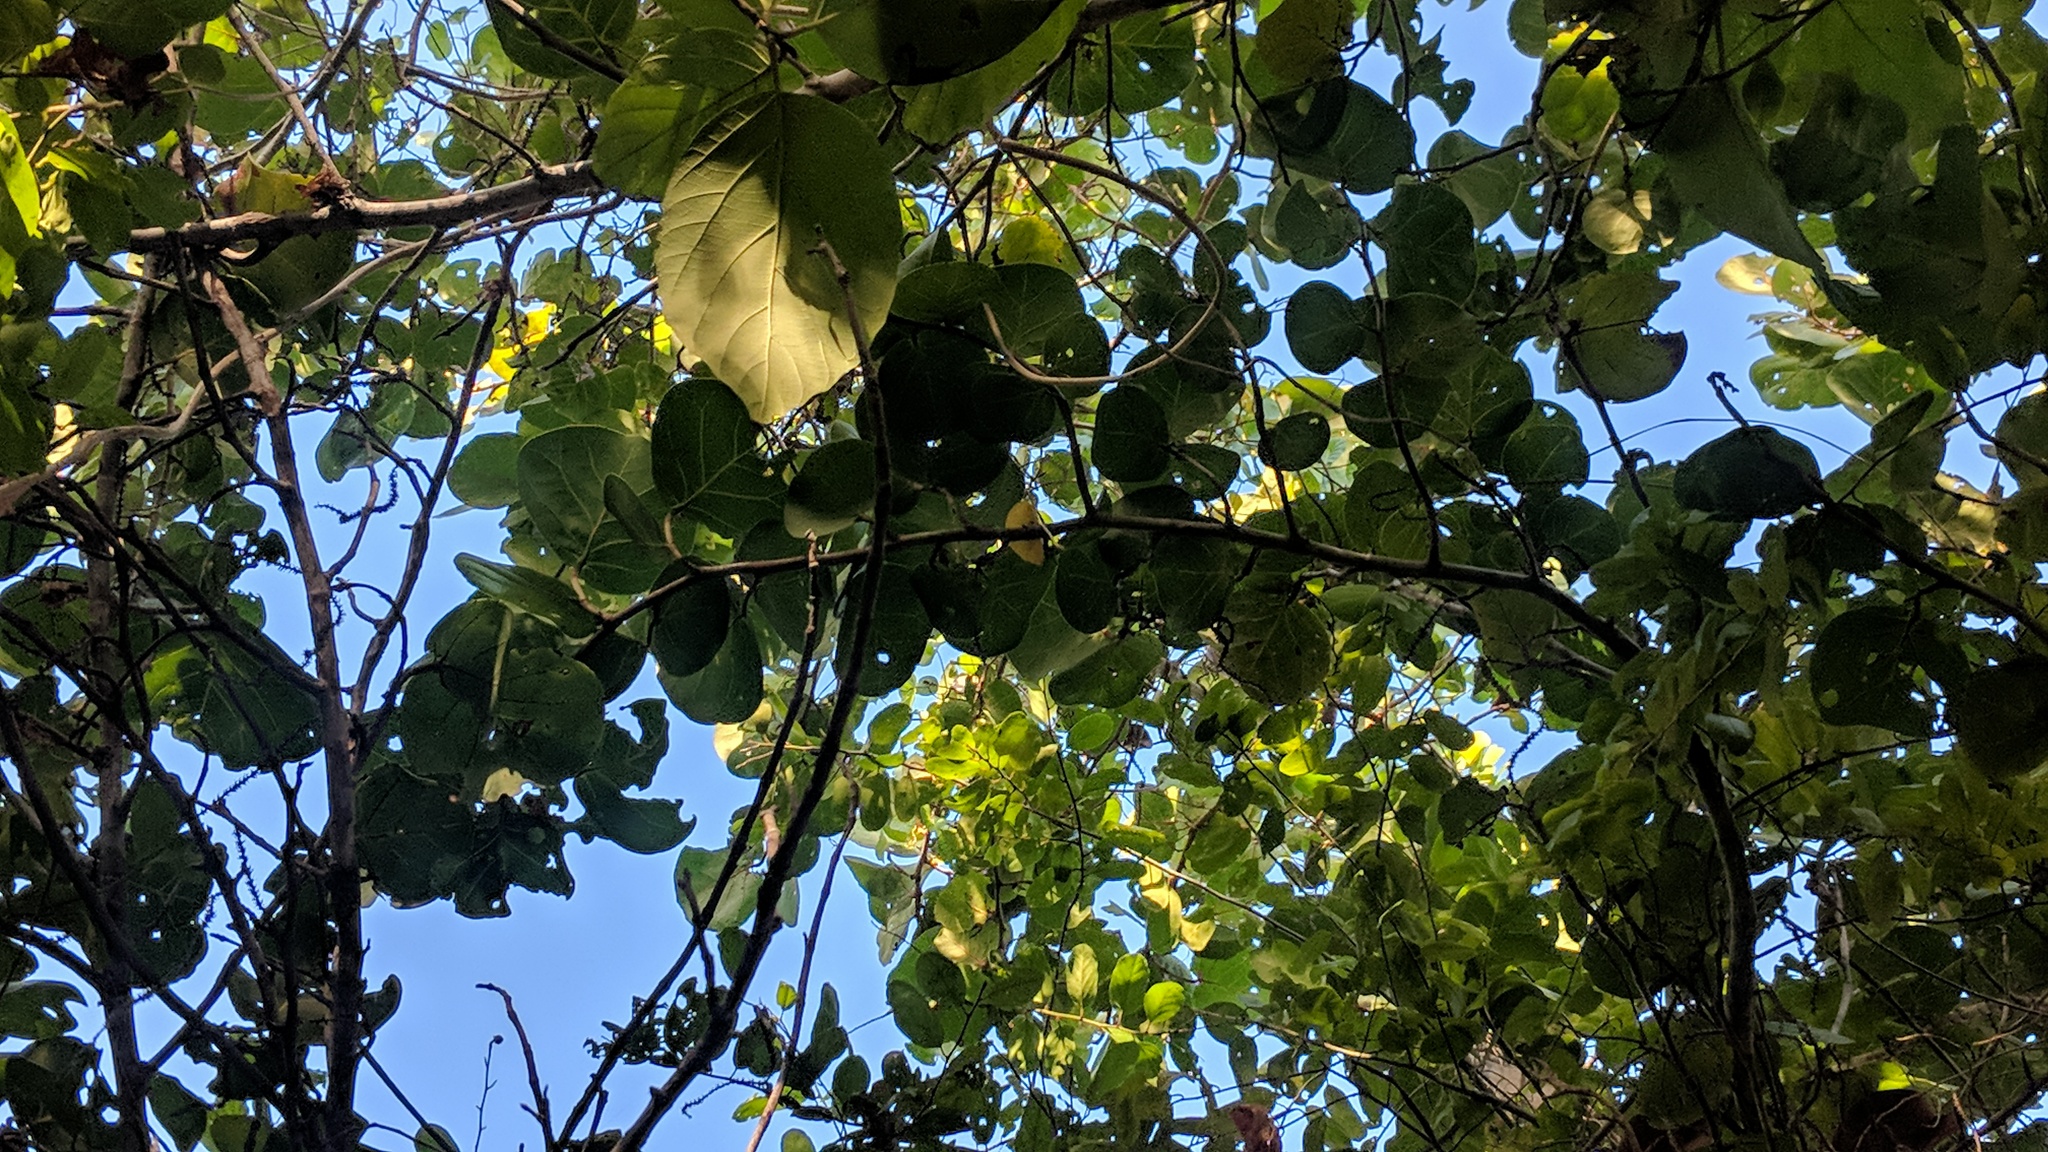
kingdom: Plantae
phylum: Tracheophyta
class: Magnoliopsida
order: Caryophyllales
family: Polygonaceae
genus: Coccoloba
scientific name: Coccoloba uvifera
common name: Seagrape
